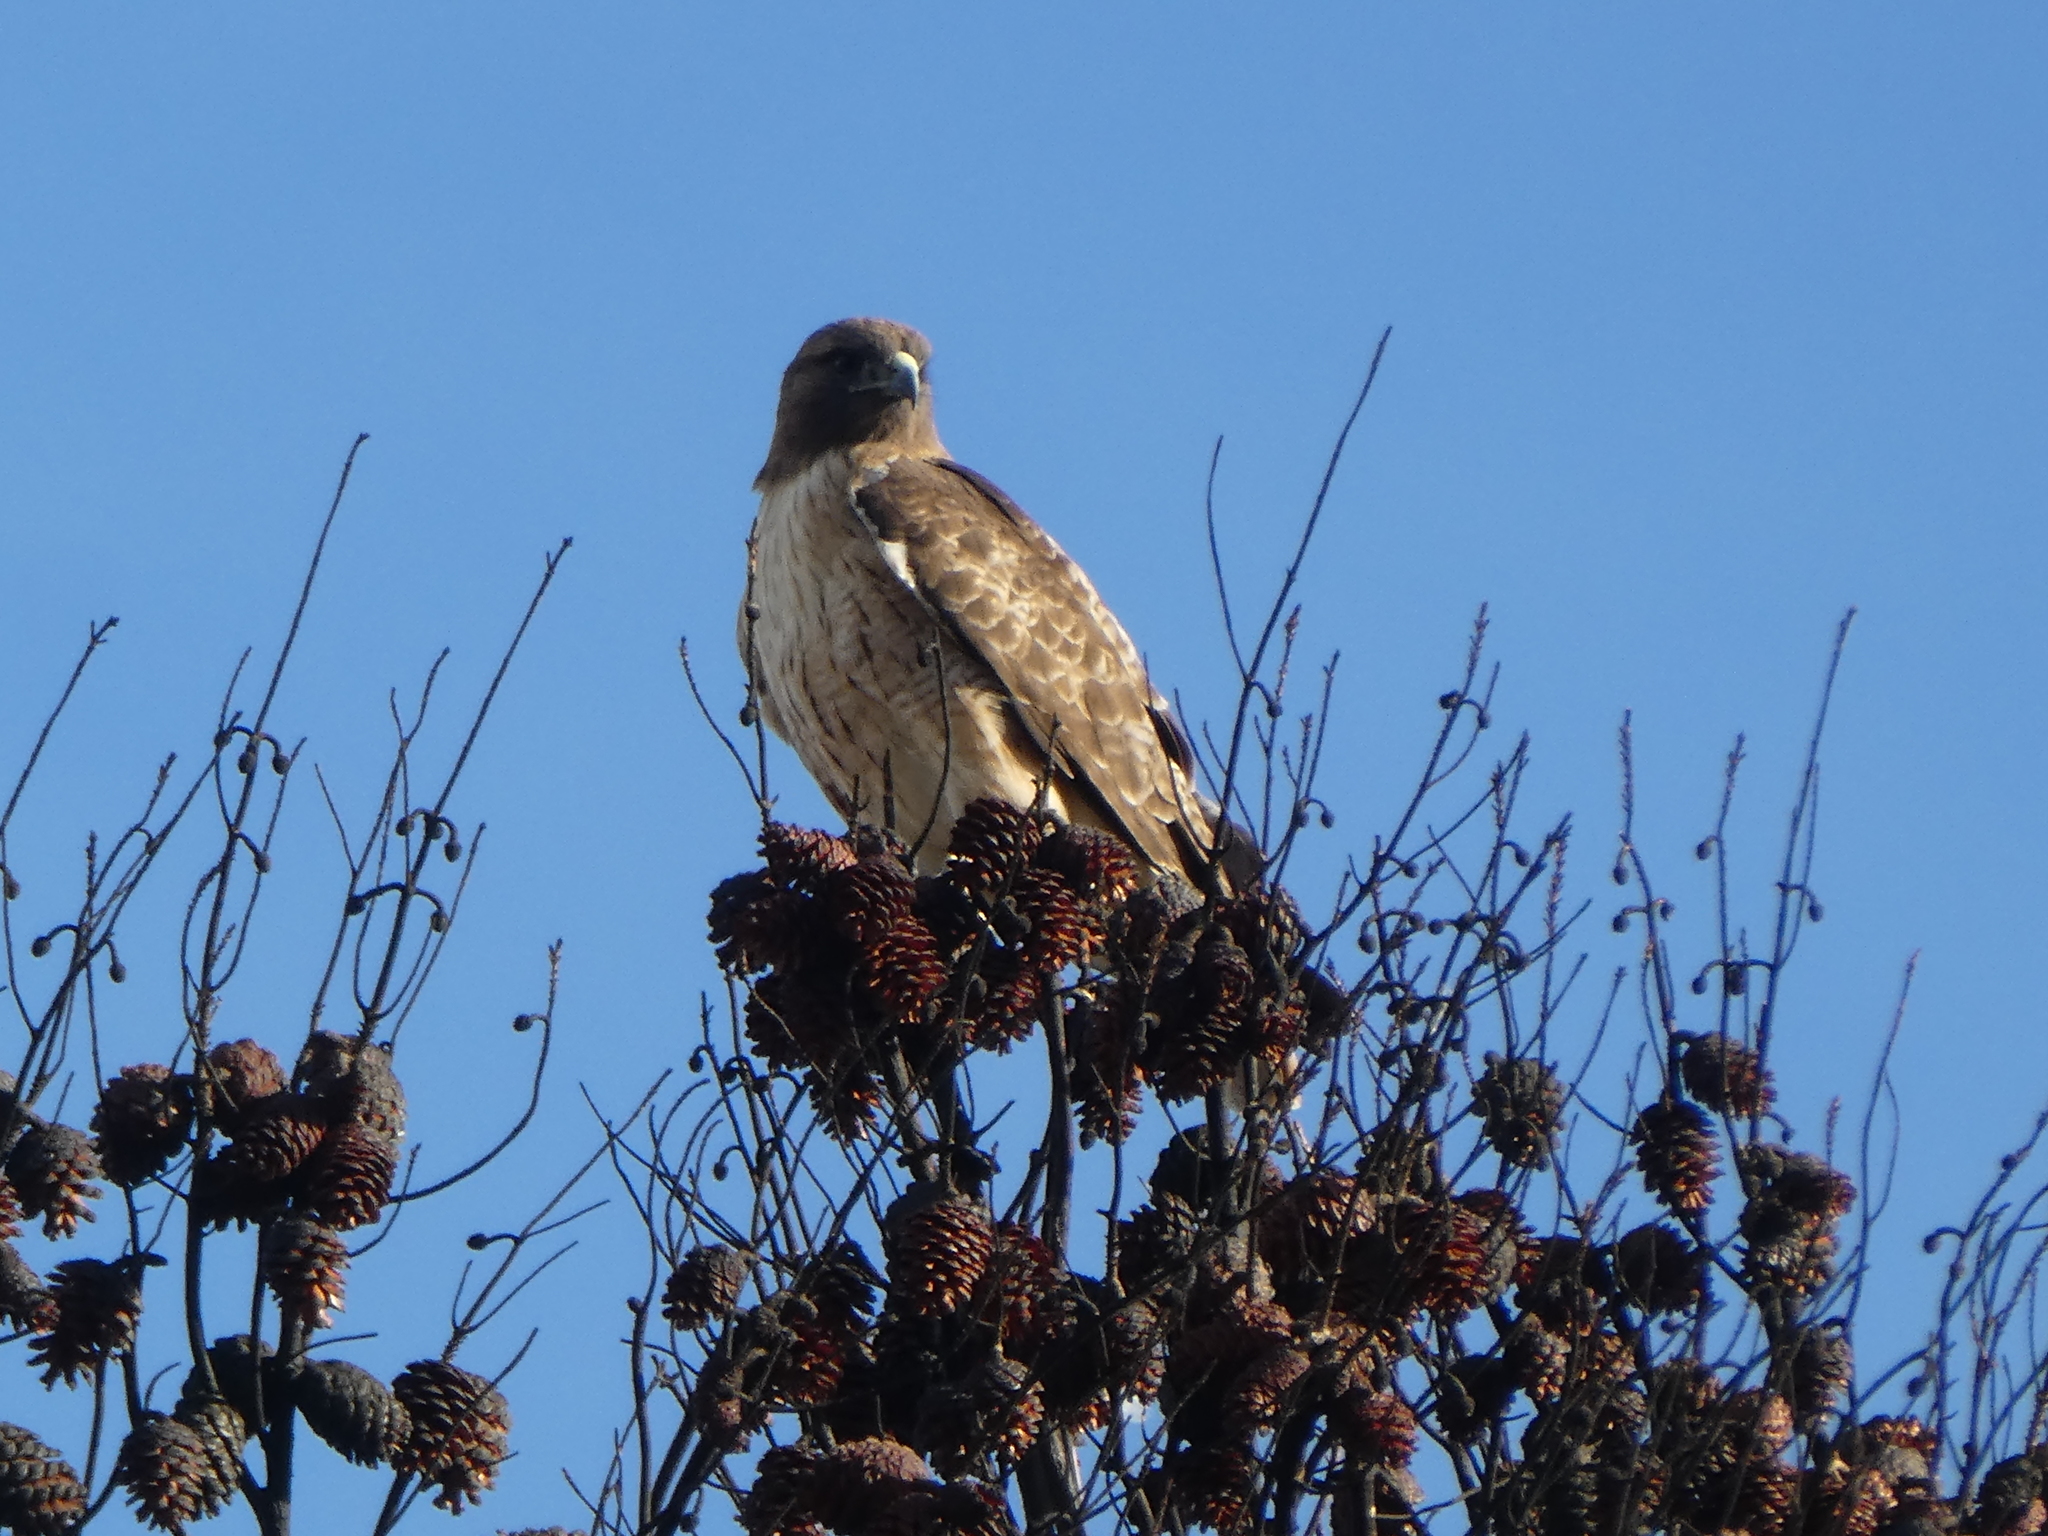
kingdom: Animalia
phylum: Chordata
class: Aves
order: Accipitriformes
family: Accipitridae
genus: Buteo
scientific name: Buteo jamaicensis
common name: Red-tailed hawk
